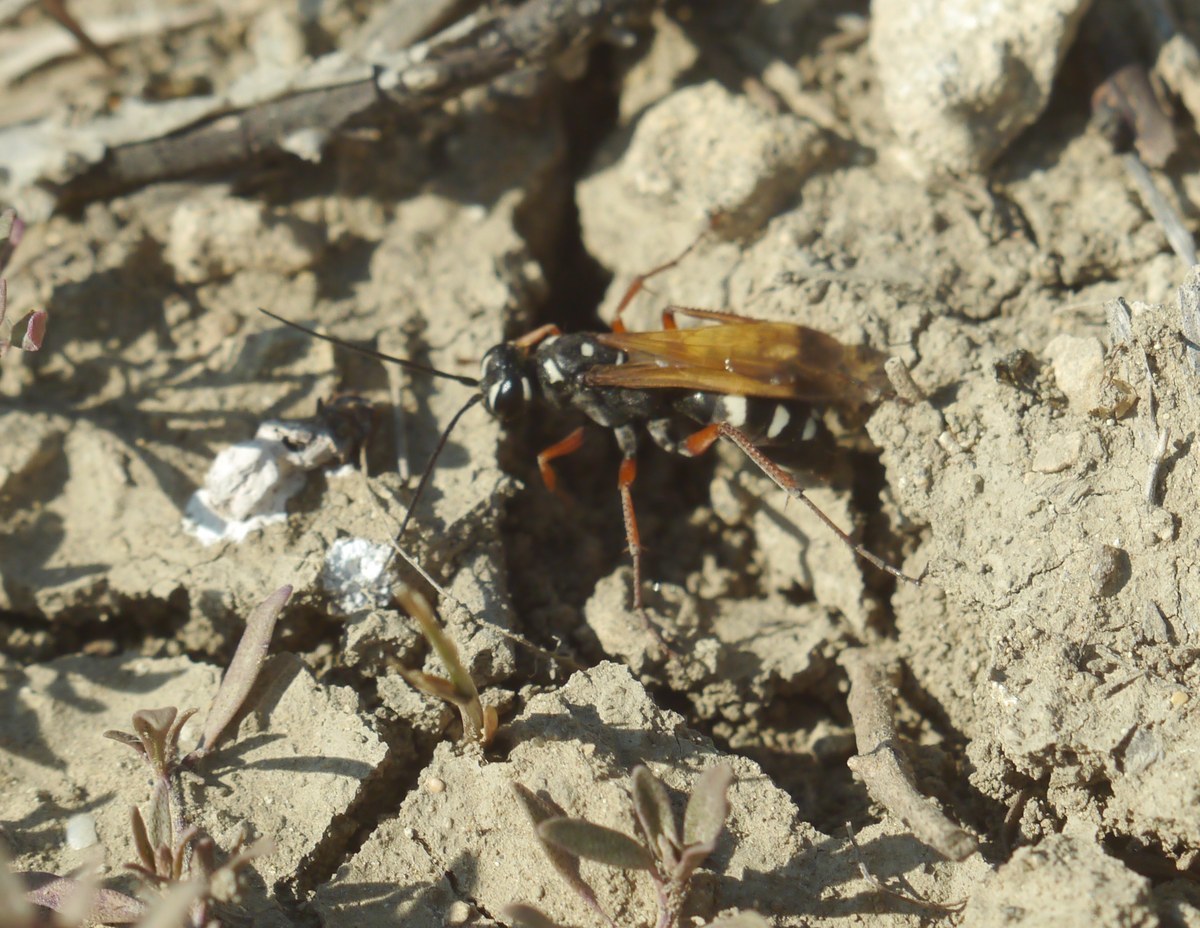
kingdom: Animalia
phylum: Arthropoda
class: Insecta
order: Hymenoptera
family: Pompilidae
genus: Cryptocheilus
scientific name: Cryptocheilus variabilis
